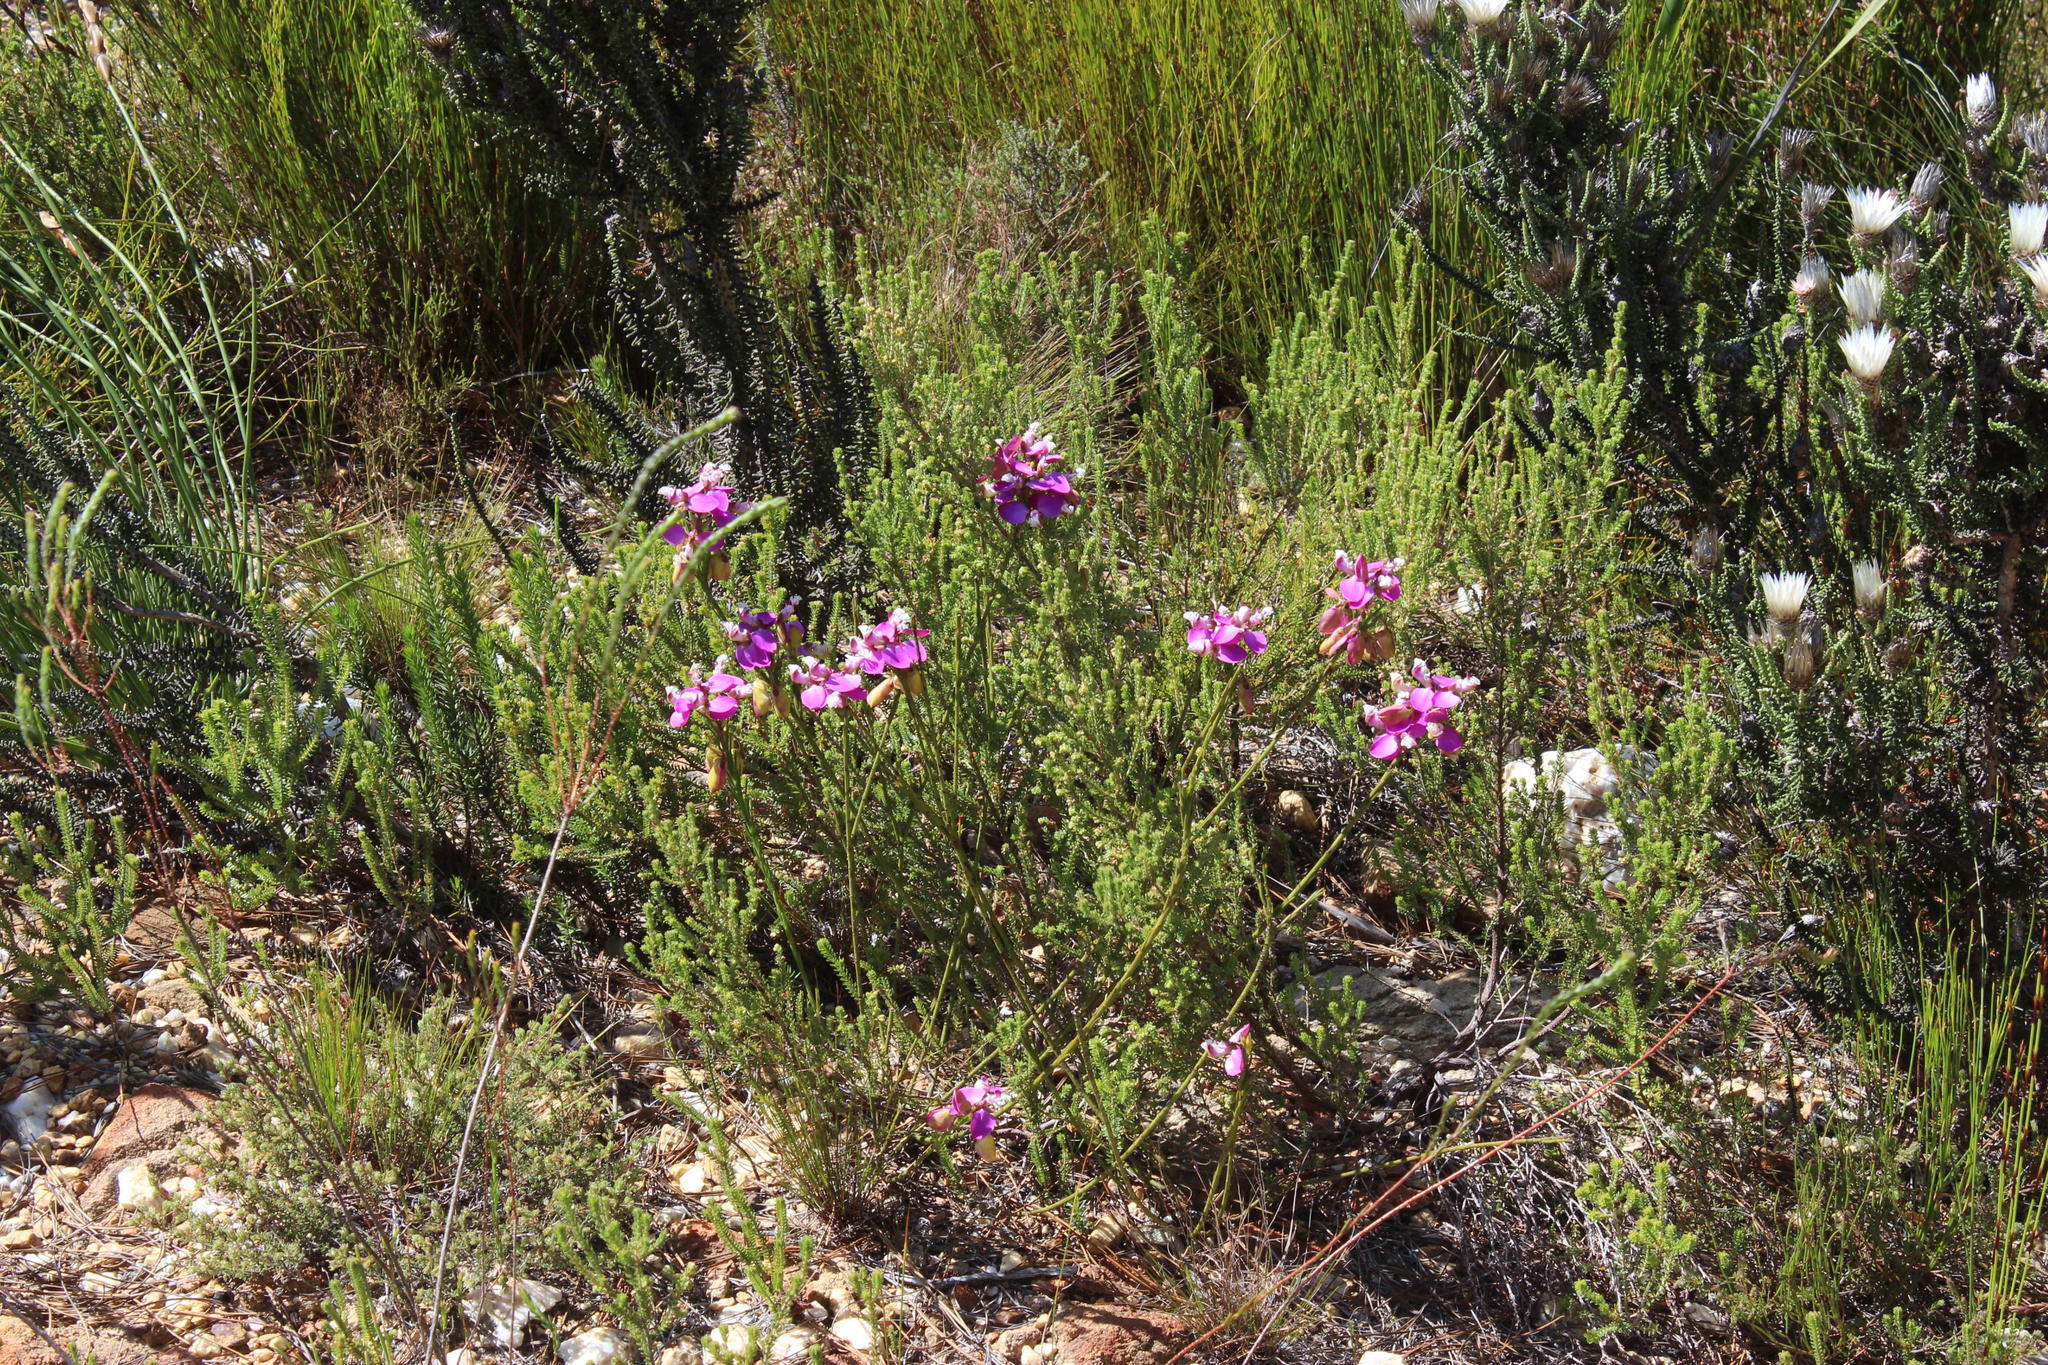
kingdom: Plantae
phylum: Tracheophyta
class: Magnoliopsida
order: Fabales
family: Polygalaceae
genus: Polygala
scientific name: Polygala bracteolata
